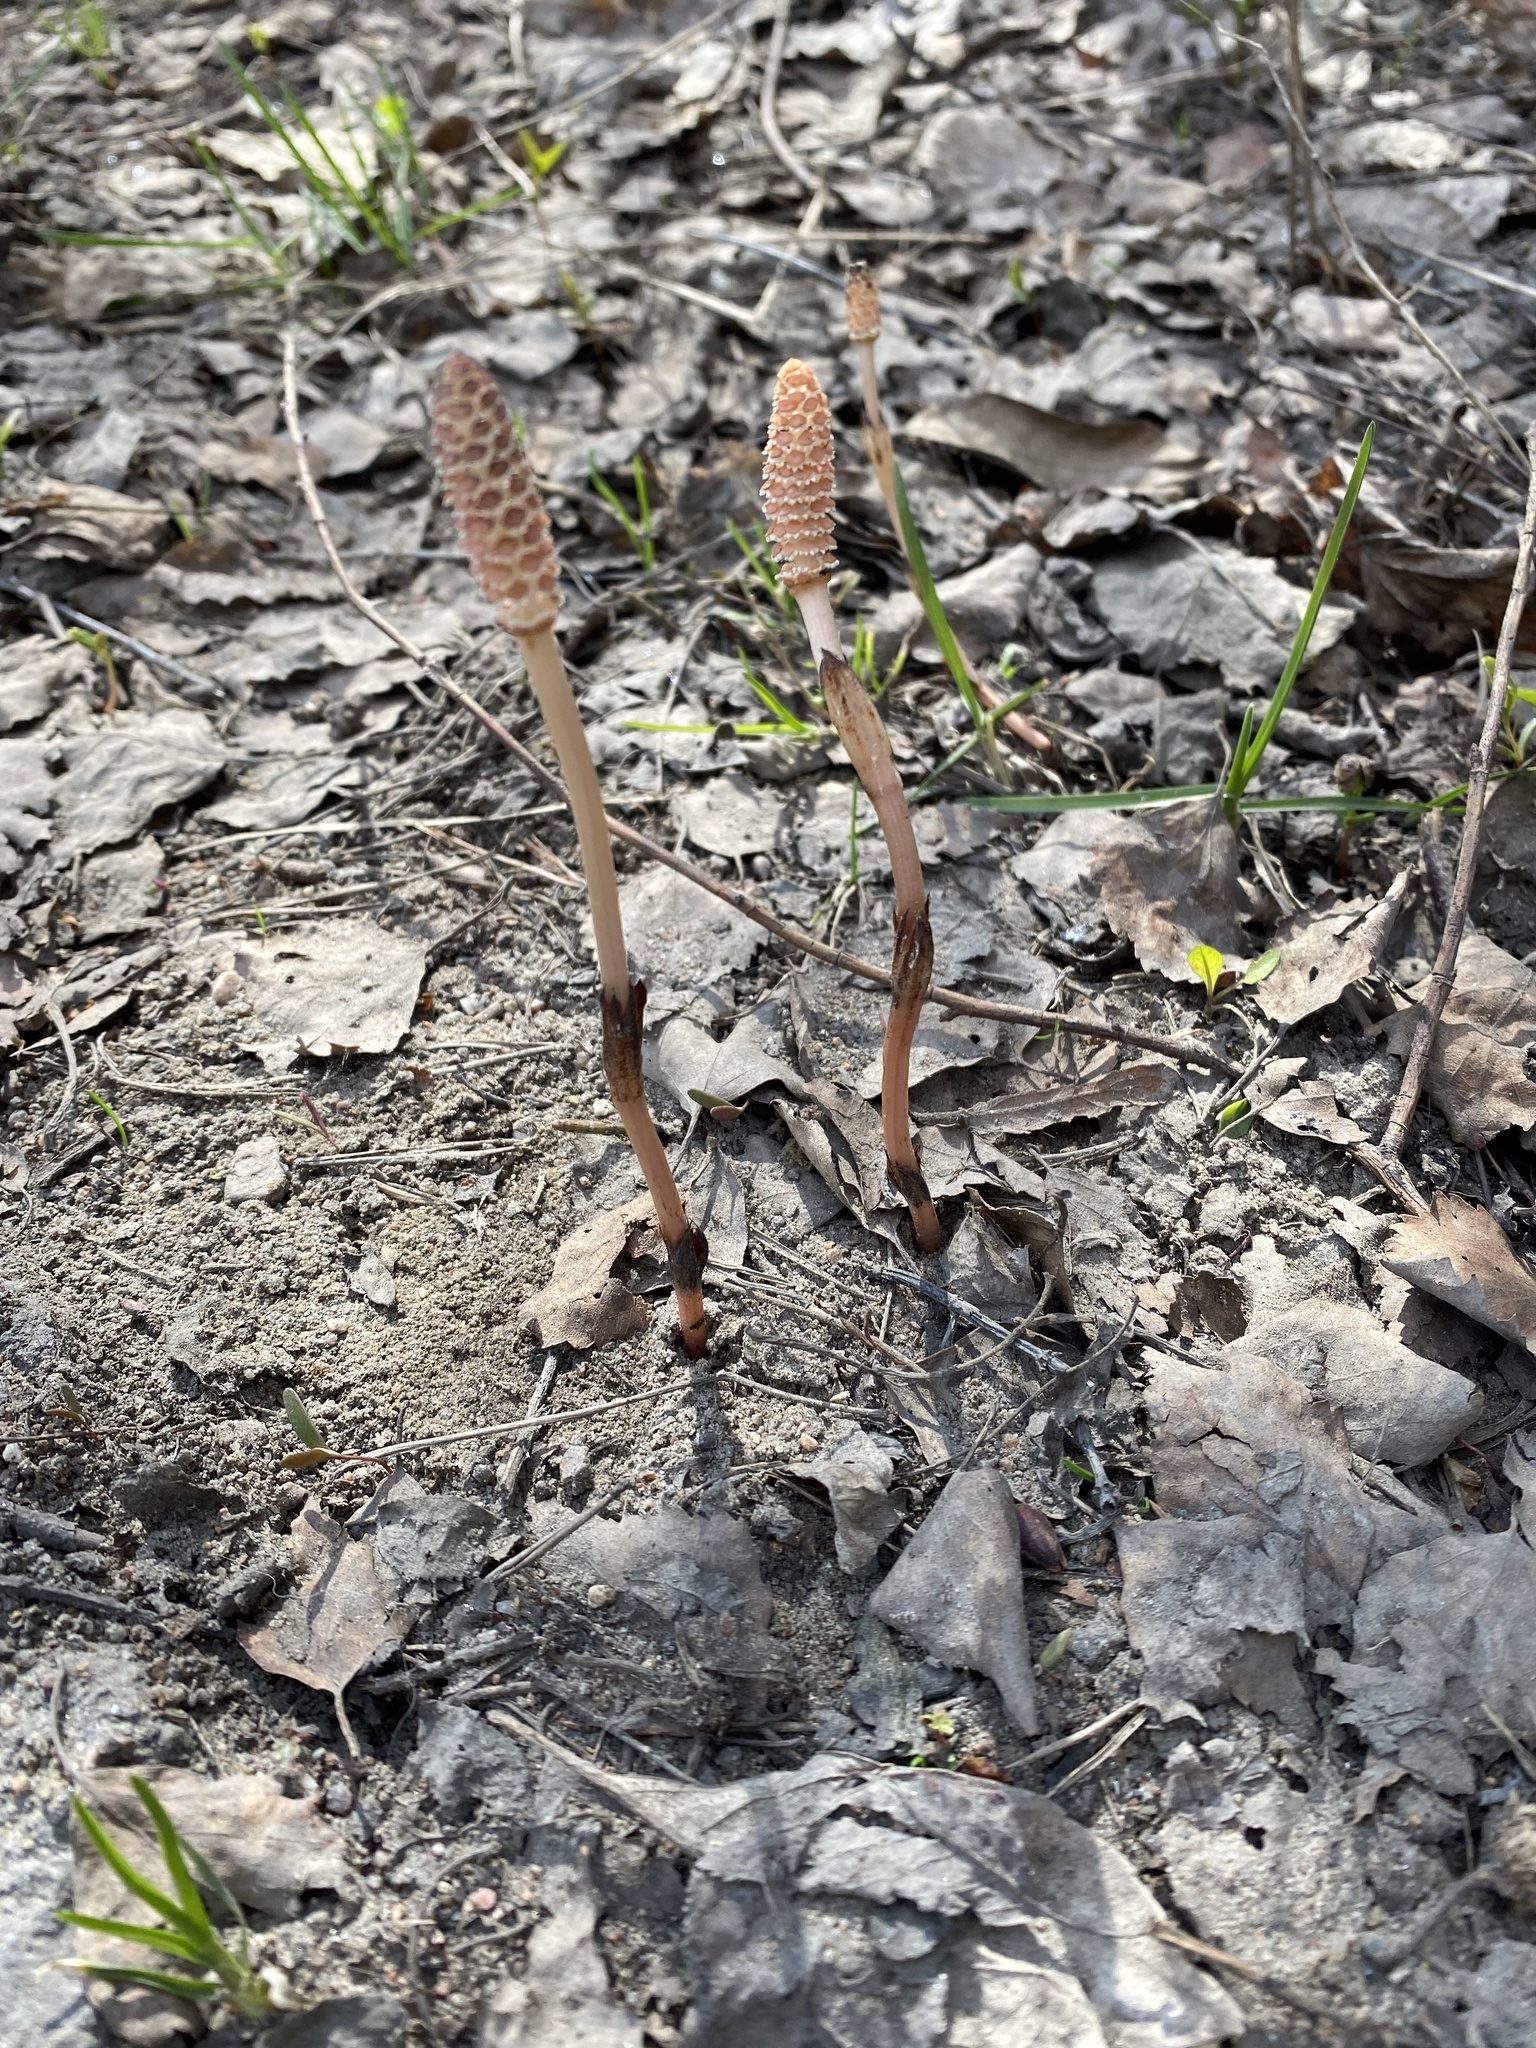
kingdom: Plantae
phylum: Tracheophyta
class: Polypodiopsida
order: Equisetales
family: Equisetaceae
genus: Equisetum
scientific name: Equisetum arvense
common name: Field horsetail
